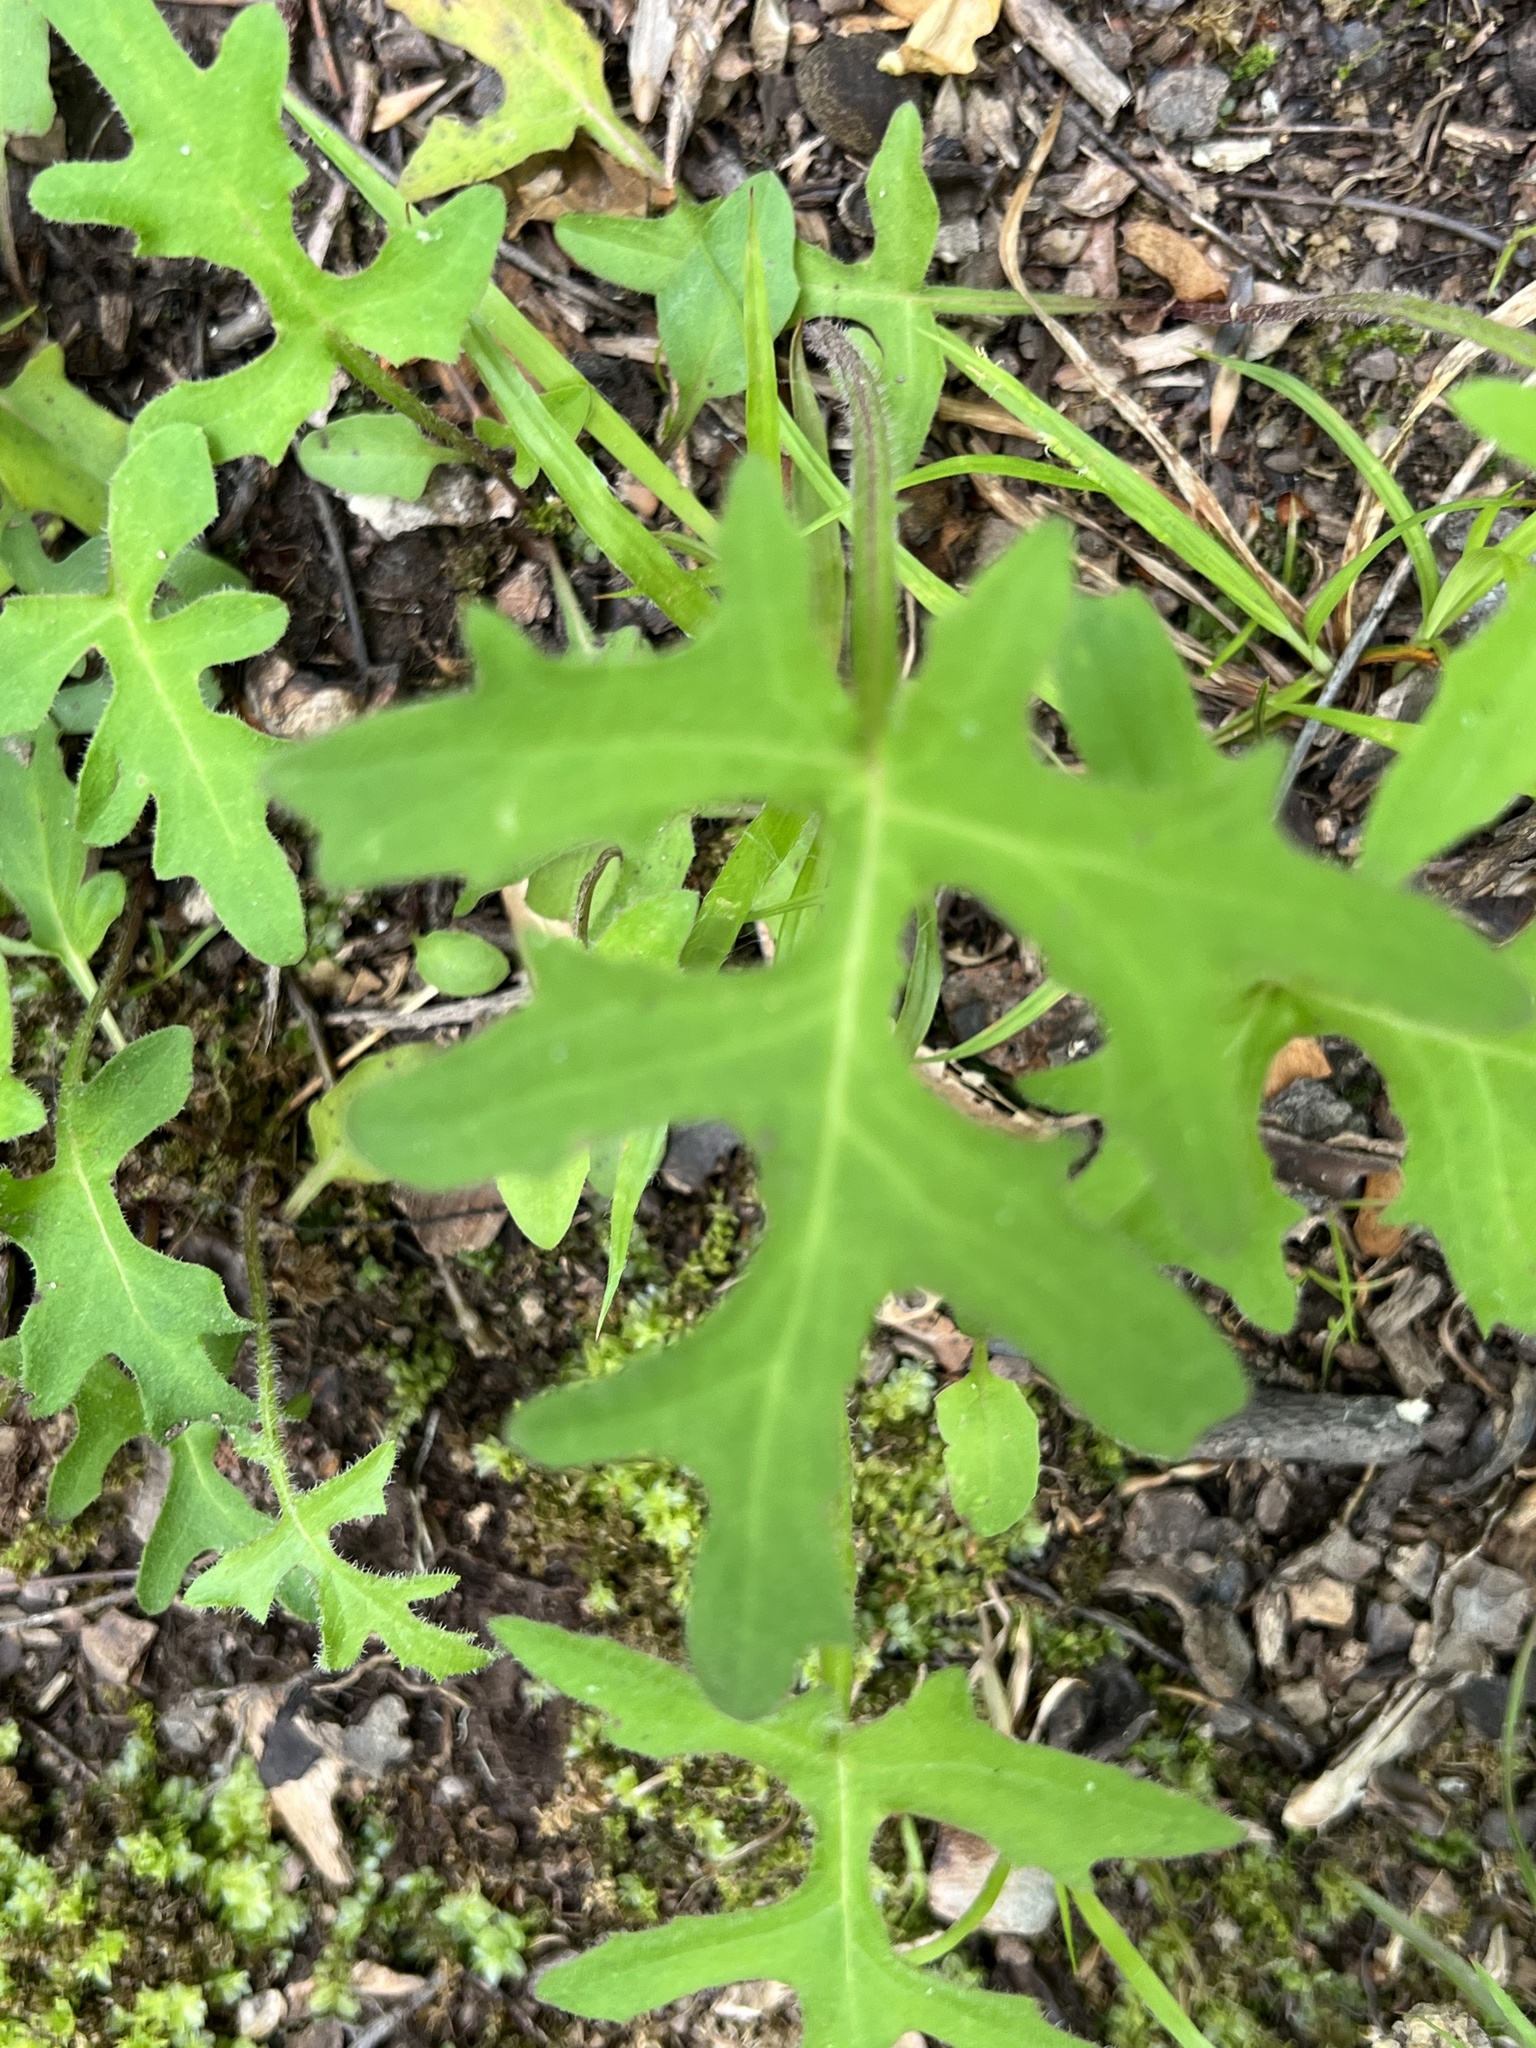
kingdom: Plantae
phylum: Tracheophyta
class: Magnoliopsida
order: Asterales
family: Asteraceae
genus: Nabalus
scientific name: Nabalus serpentarius
